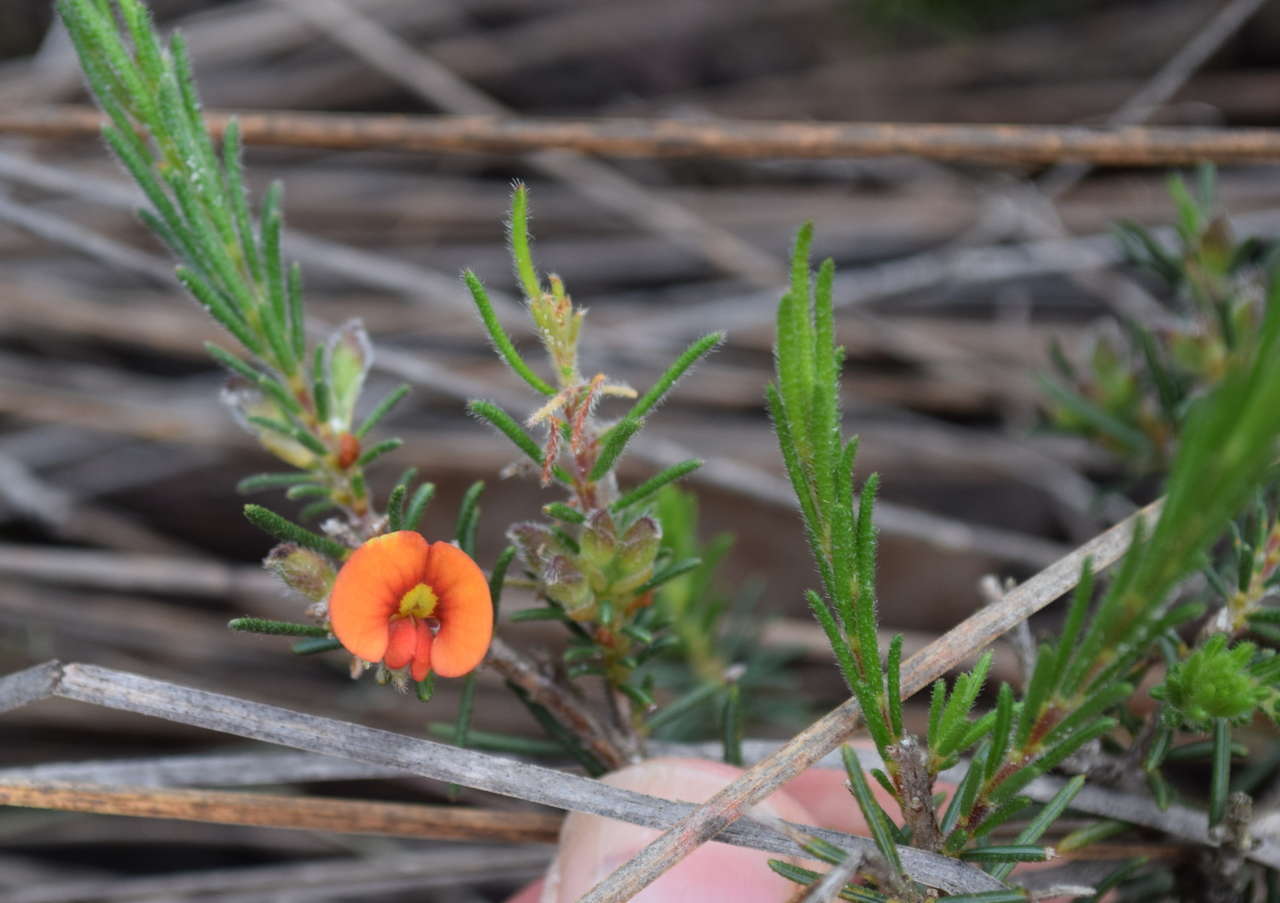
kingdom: Plantae
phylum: Tracheophyta
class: Magnoliopsida
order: Fabales
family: Fabaceae
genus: Dillwynia
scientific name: Dillwynia sericea
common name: Showy parrot-pea
